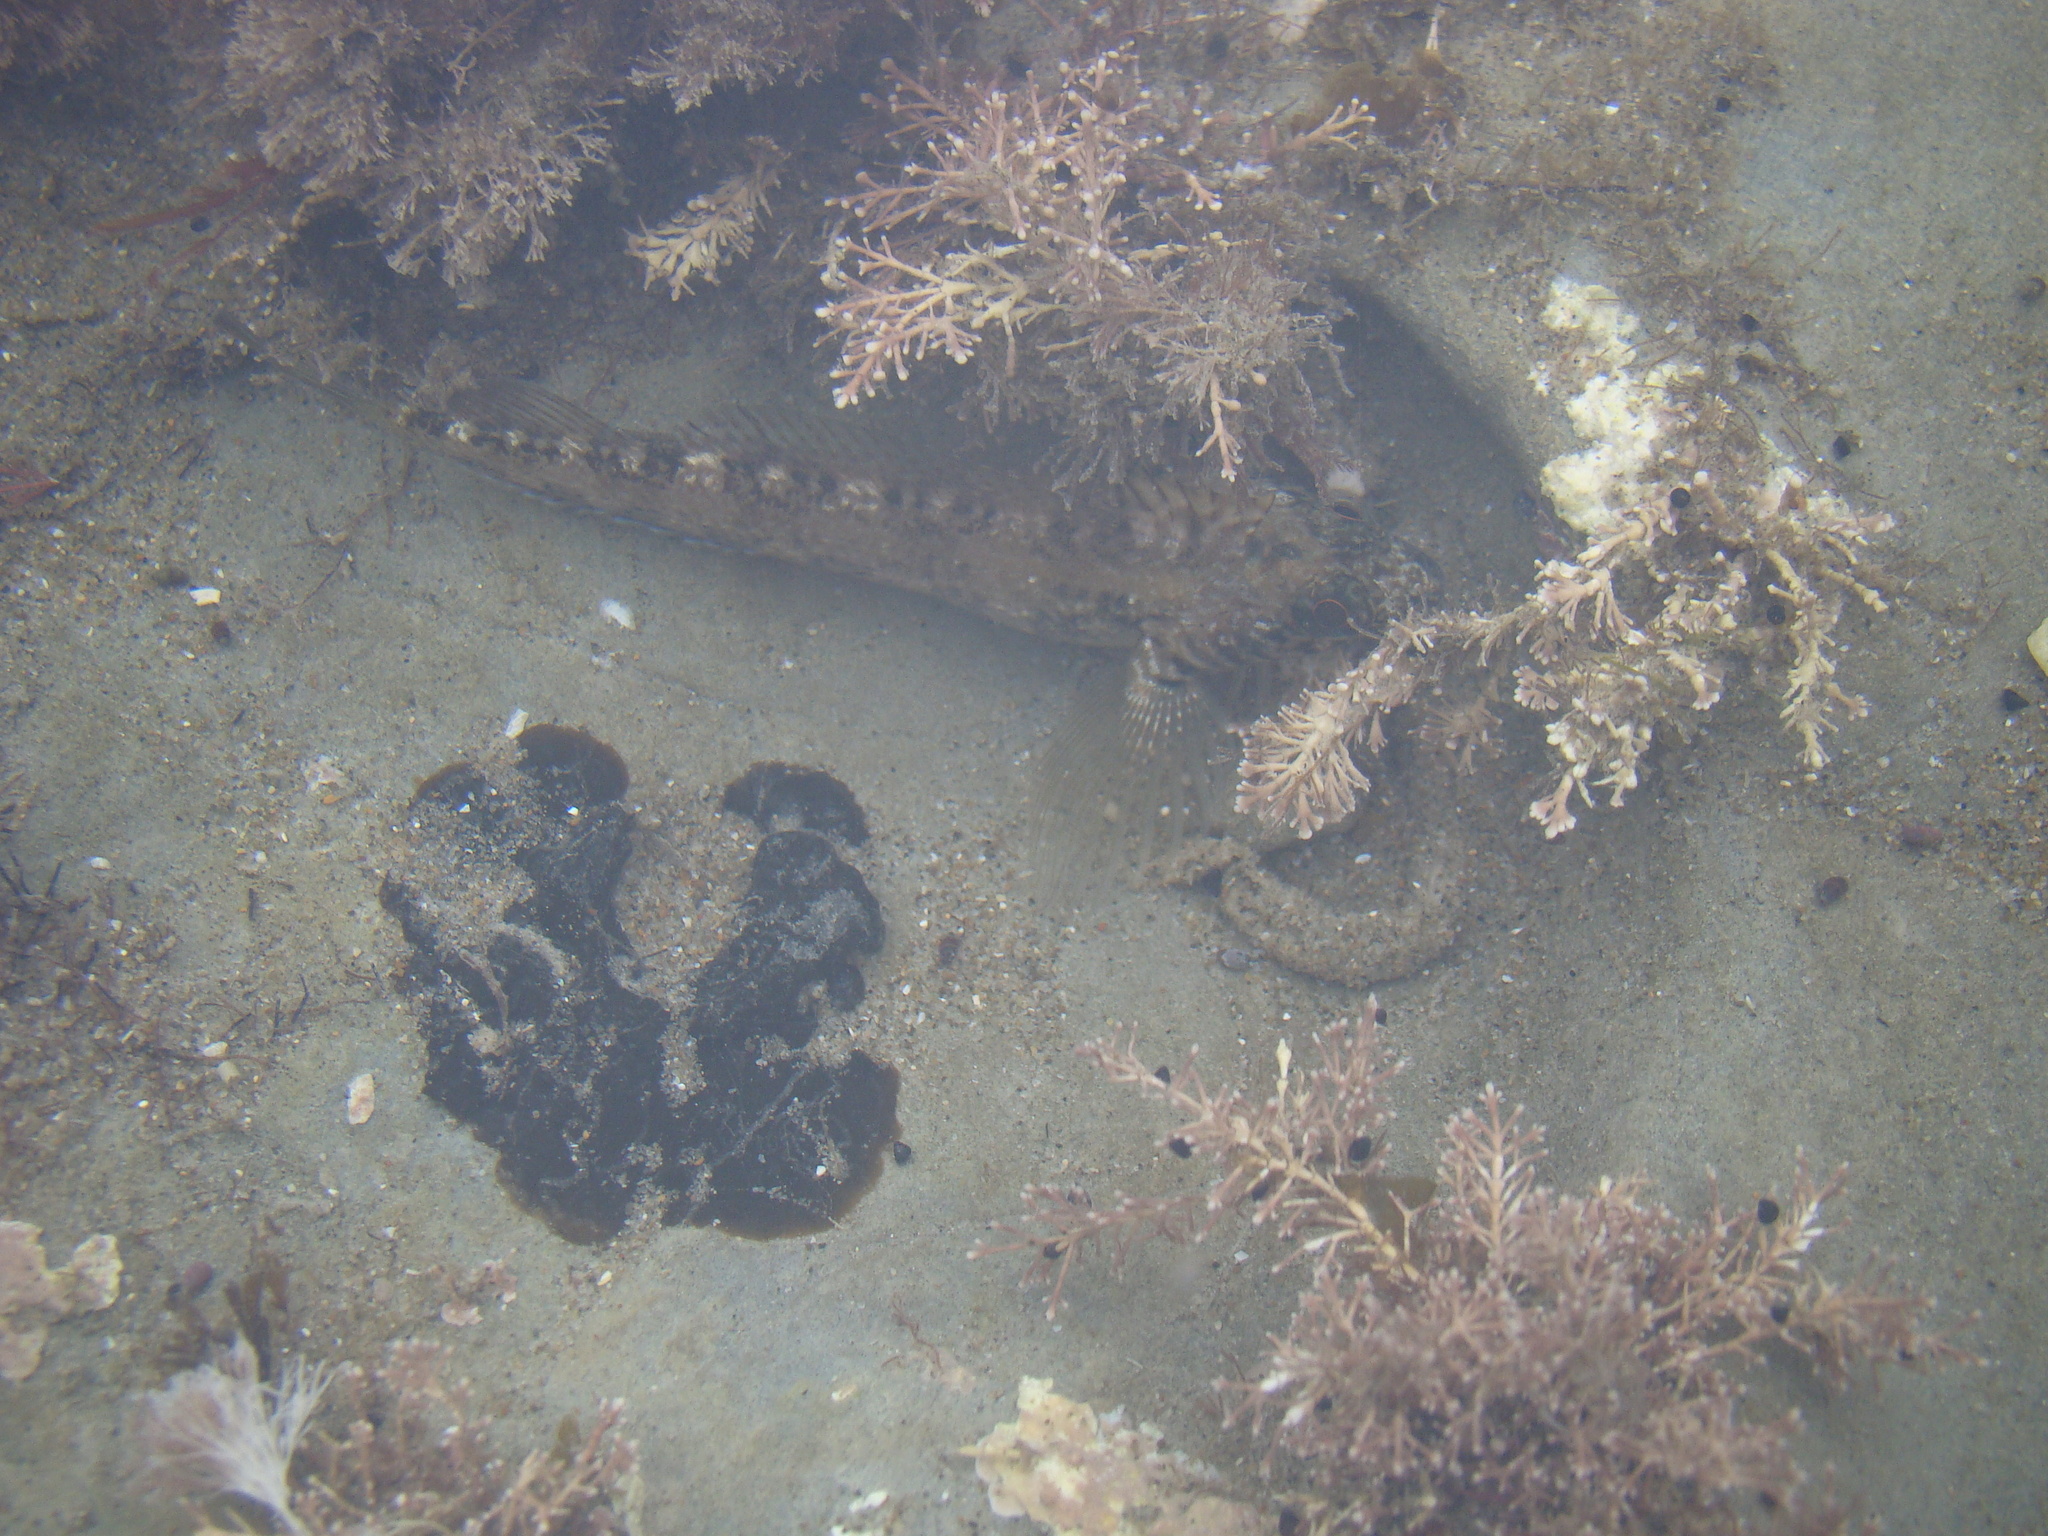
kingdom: Animalia
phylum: Chordata
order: Perciformes
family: Tripterygiidae
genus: Forsterygion
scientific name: Forsterygion varium
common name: Variable triplefin
